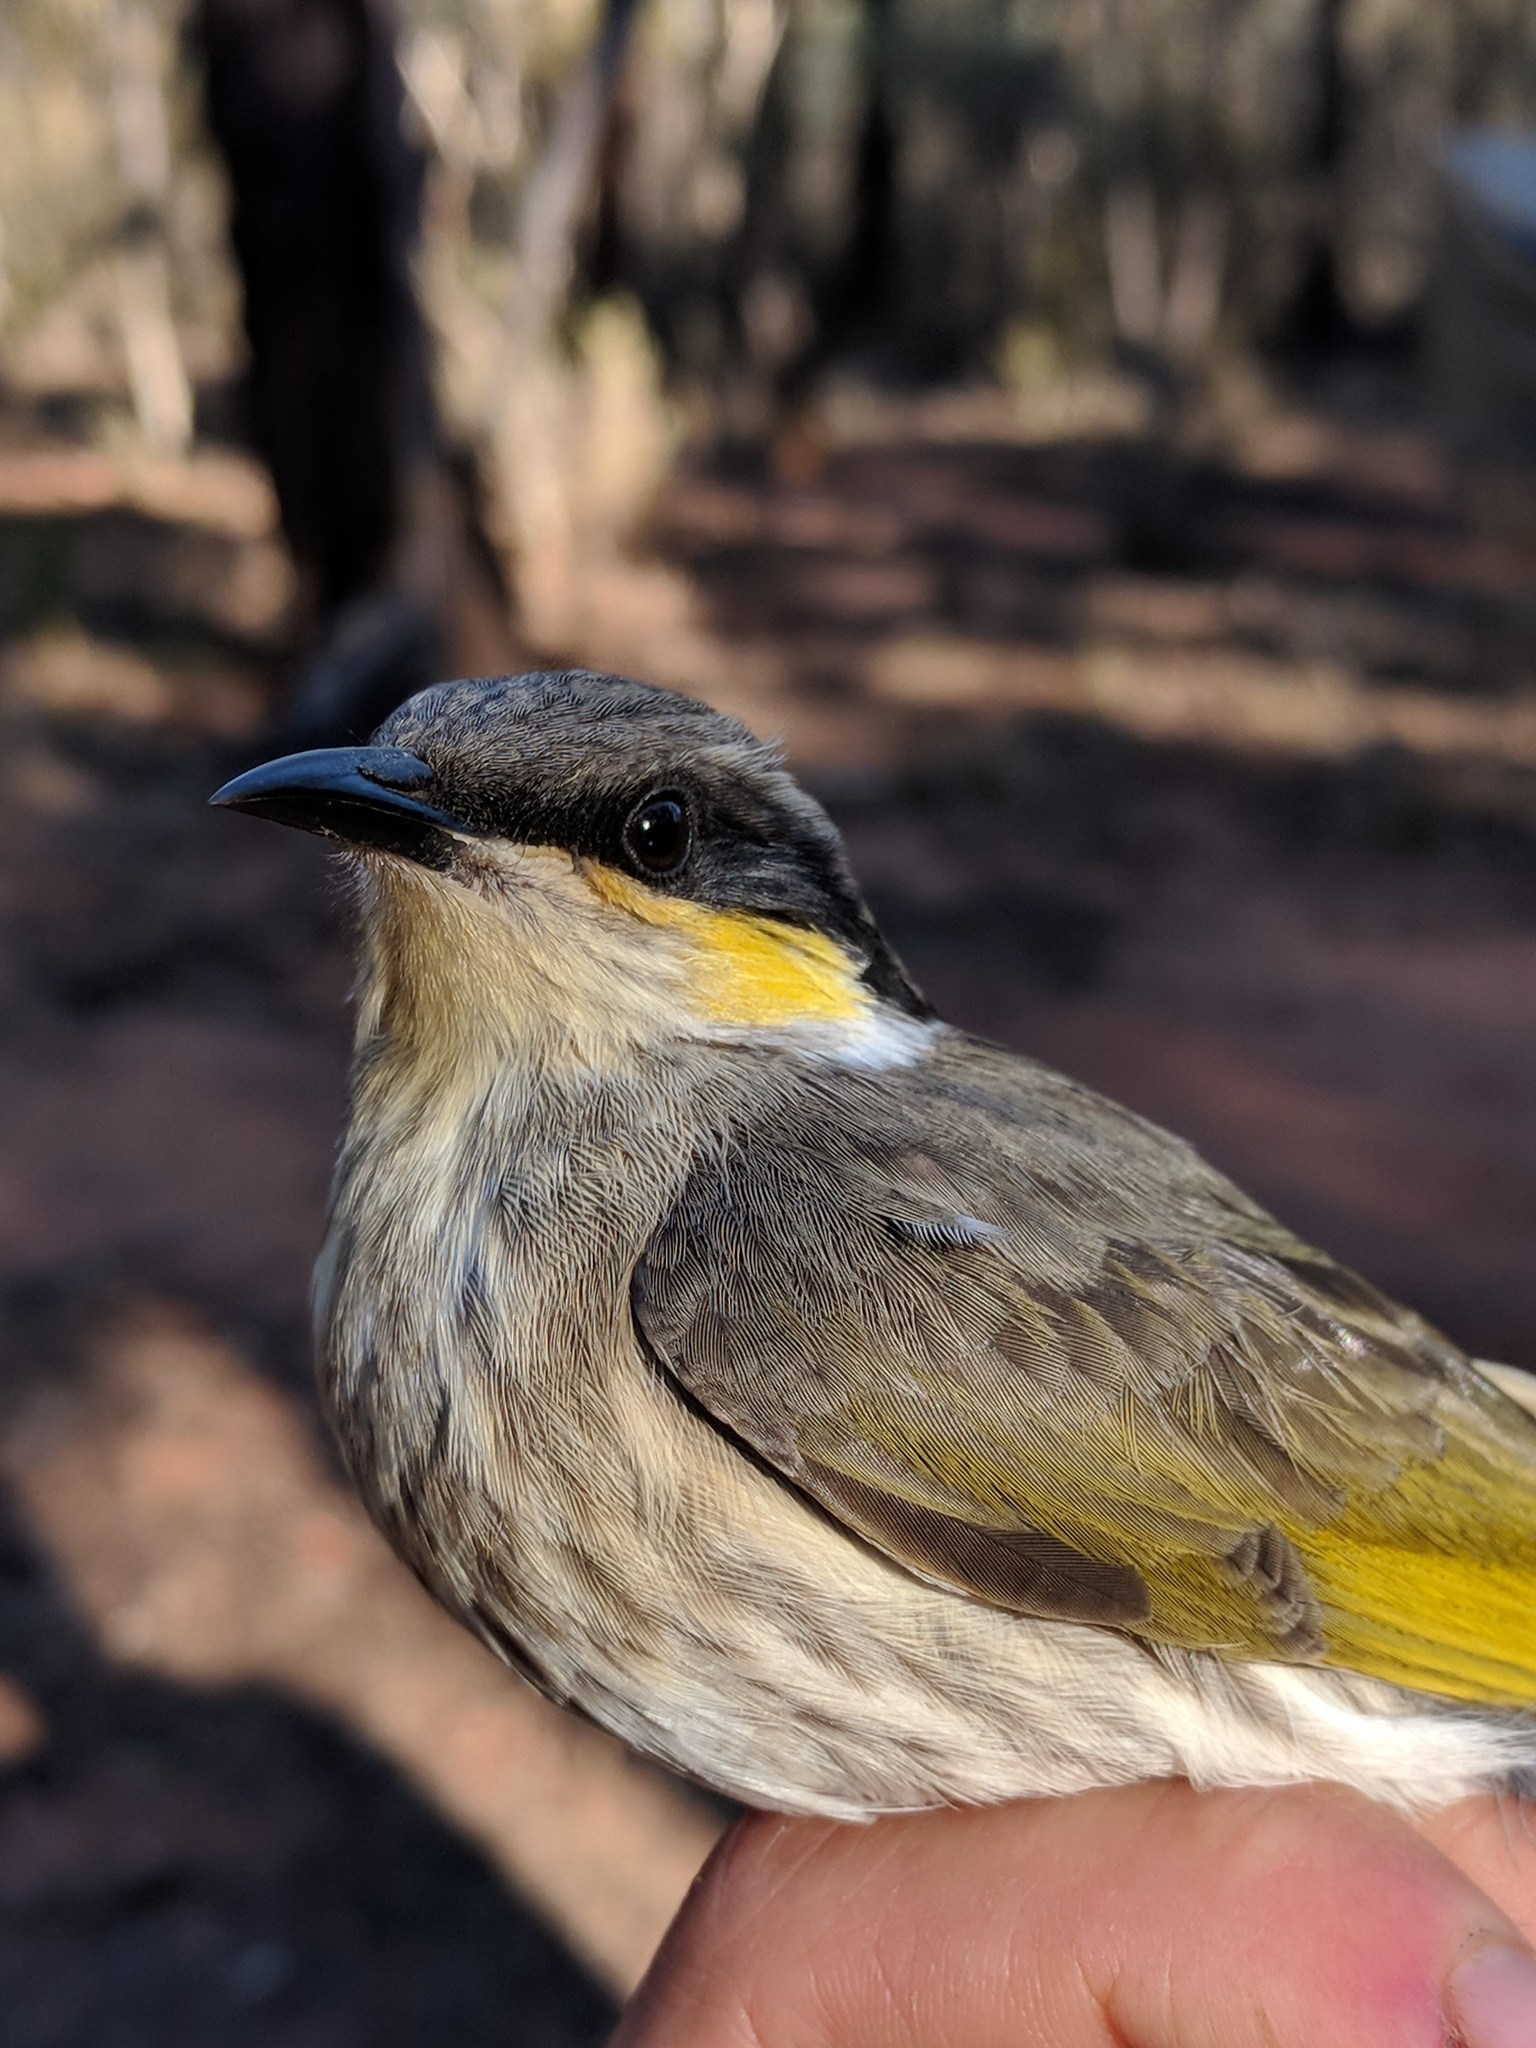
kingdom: Animalia
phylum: Chordata
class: Aves
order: Passeriformes
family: Meliphagidae
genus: Gavicalis
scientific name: Gavicalis virescens
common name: Singing honeyeater
